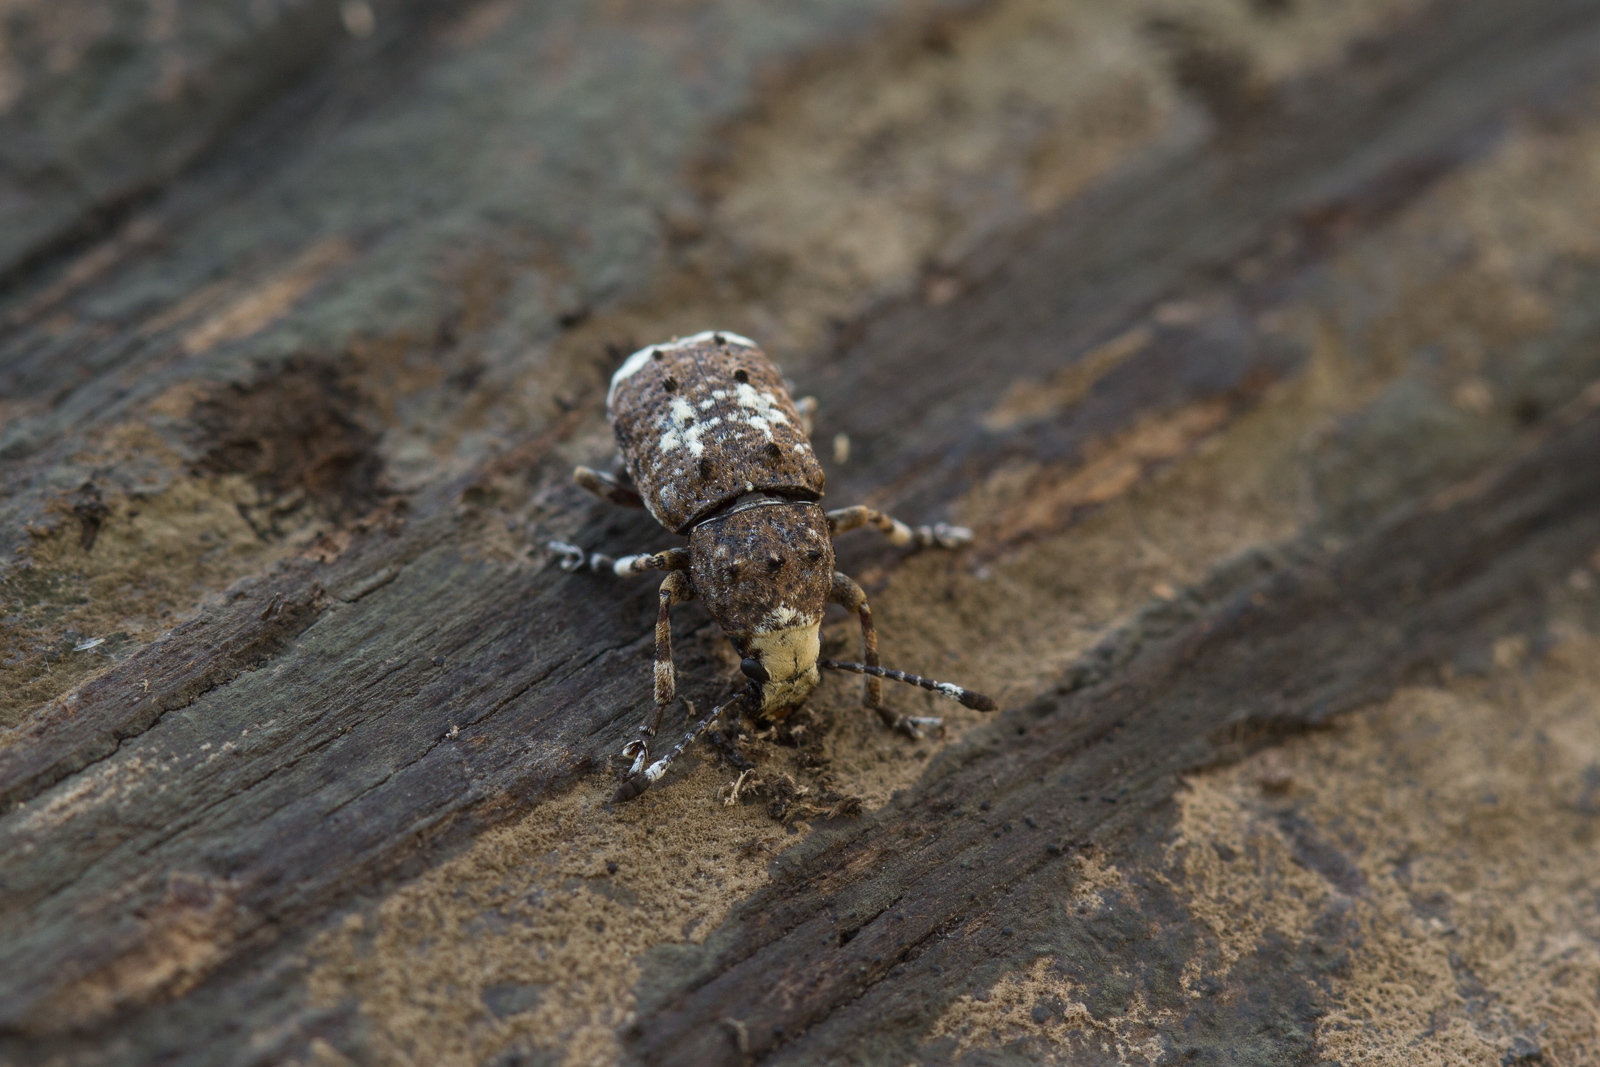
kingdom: Animalia
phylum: Arthropoda
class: Insecta
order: Coleoptera
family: Anthribidae
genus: Platystomos
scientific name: Platystomos albinus
